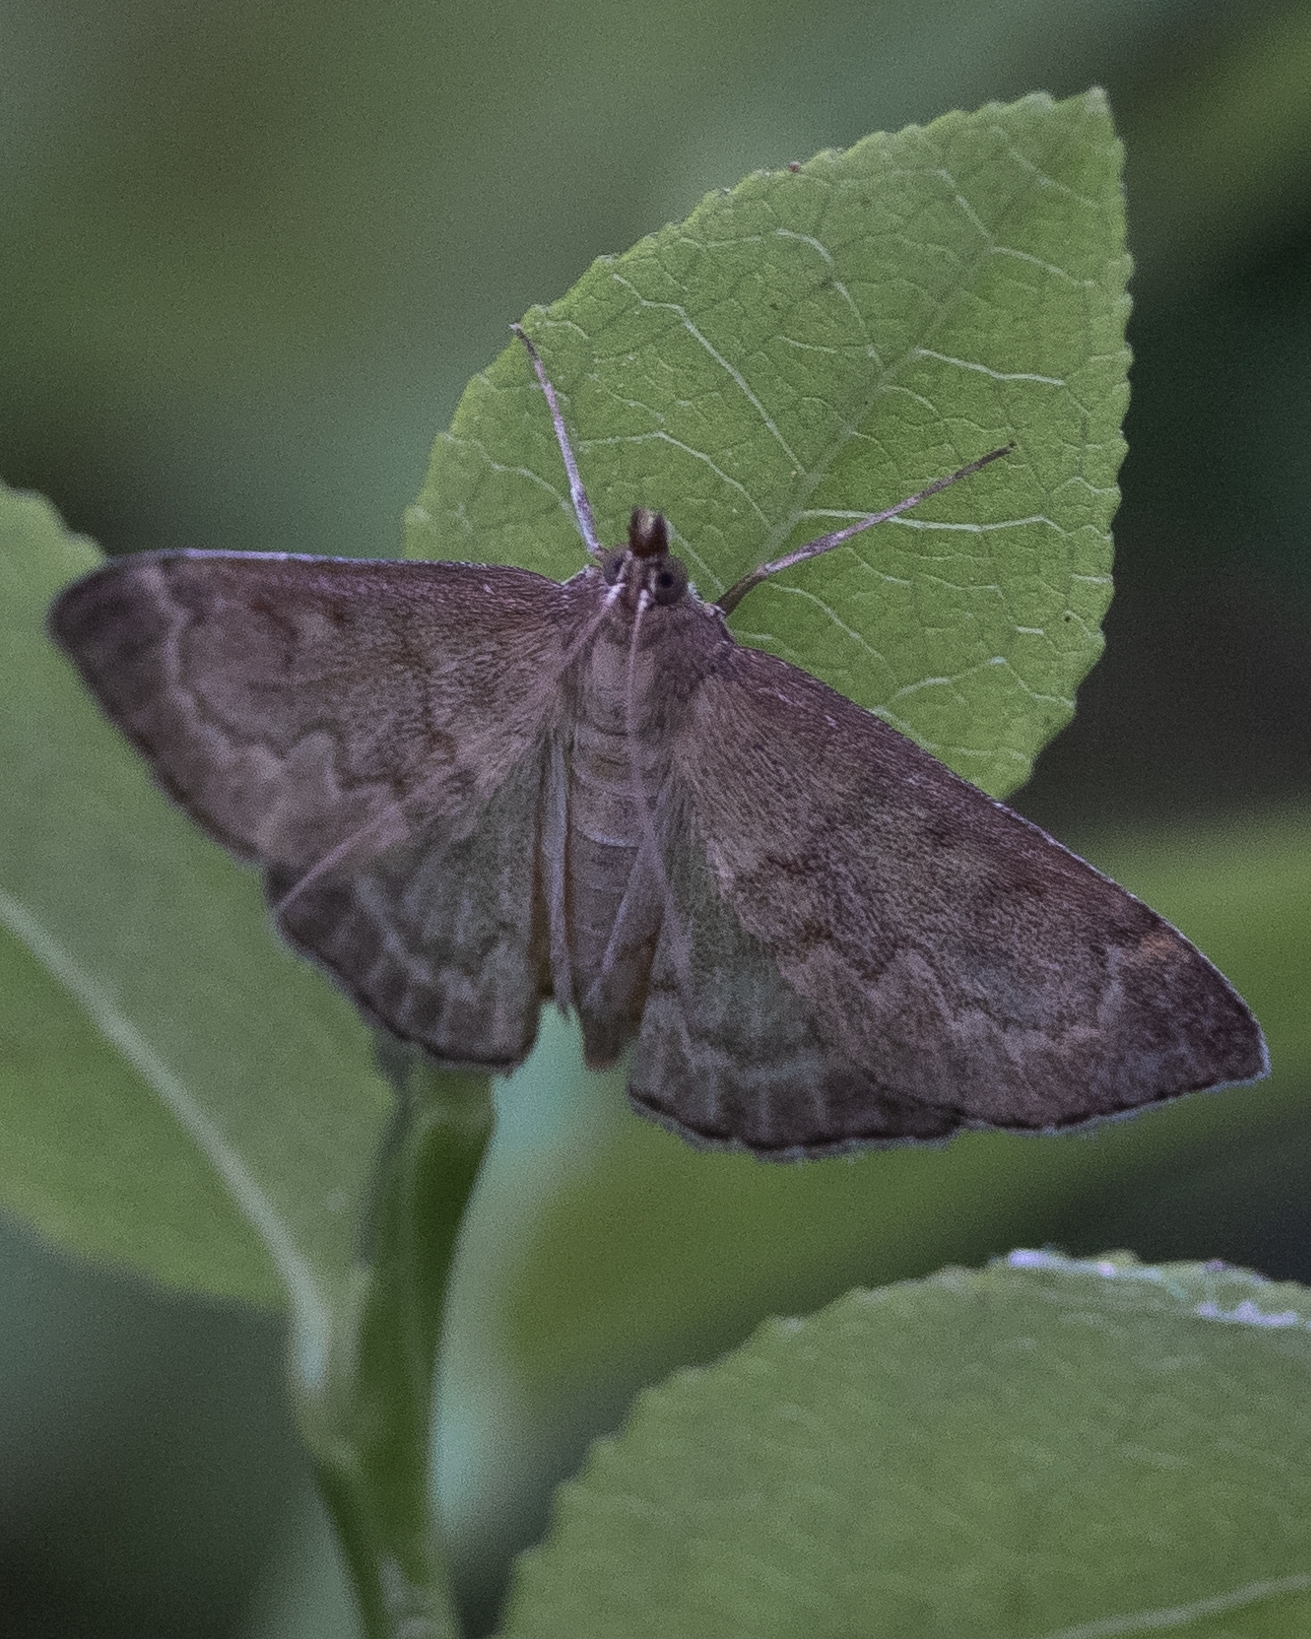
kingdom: Animalia
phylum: Arthropoda
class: Insecta
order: Lepidoptera
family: Crambidae
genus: Anania
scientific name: Anania fuscalis
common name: Cinerous pearl
